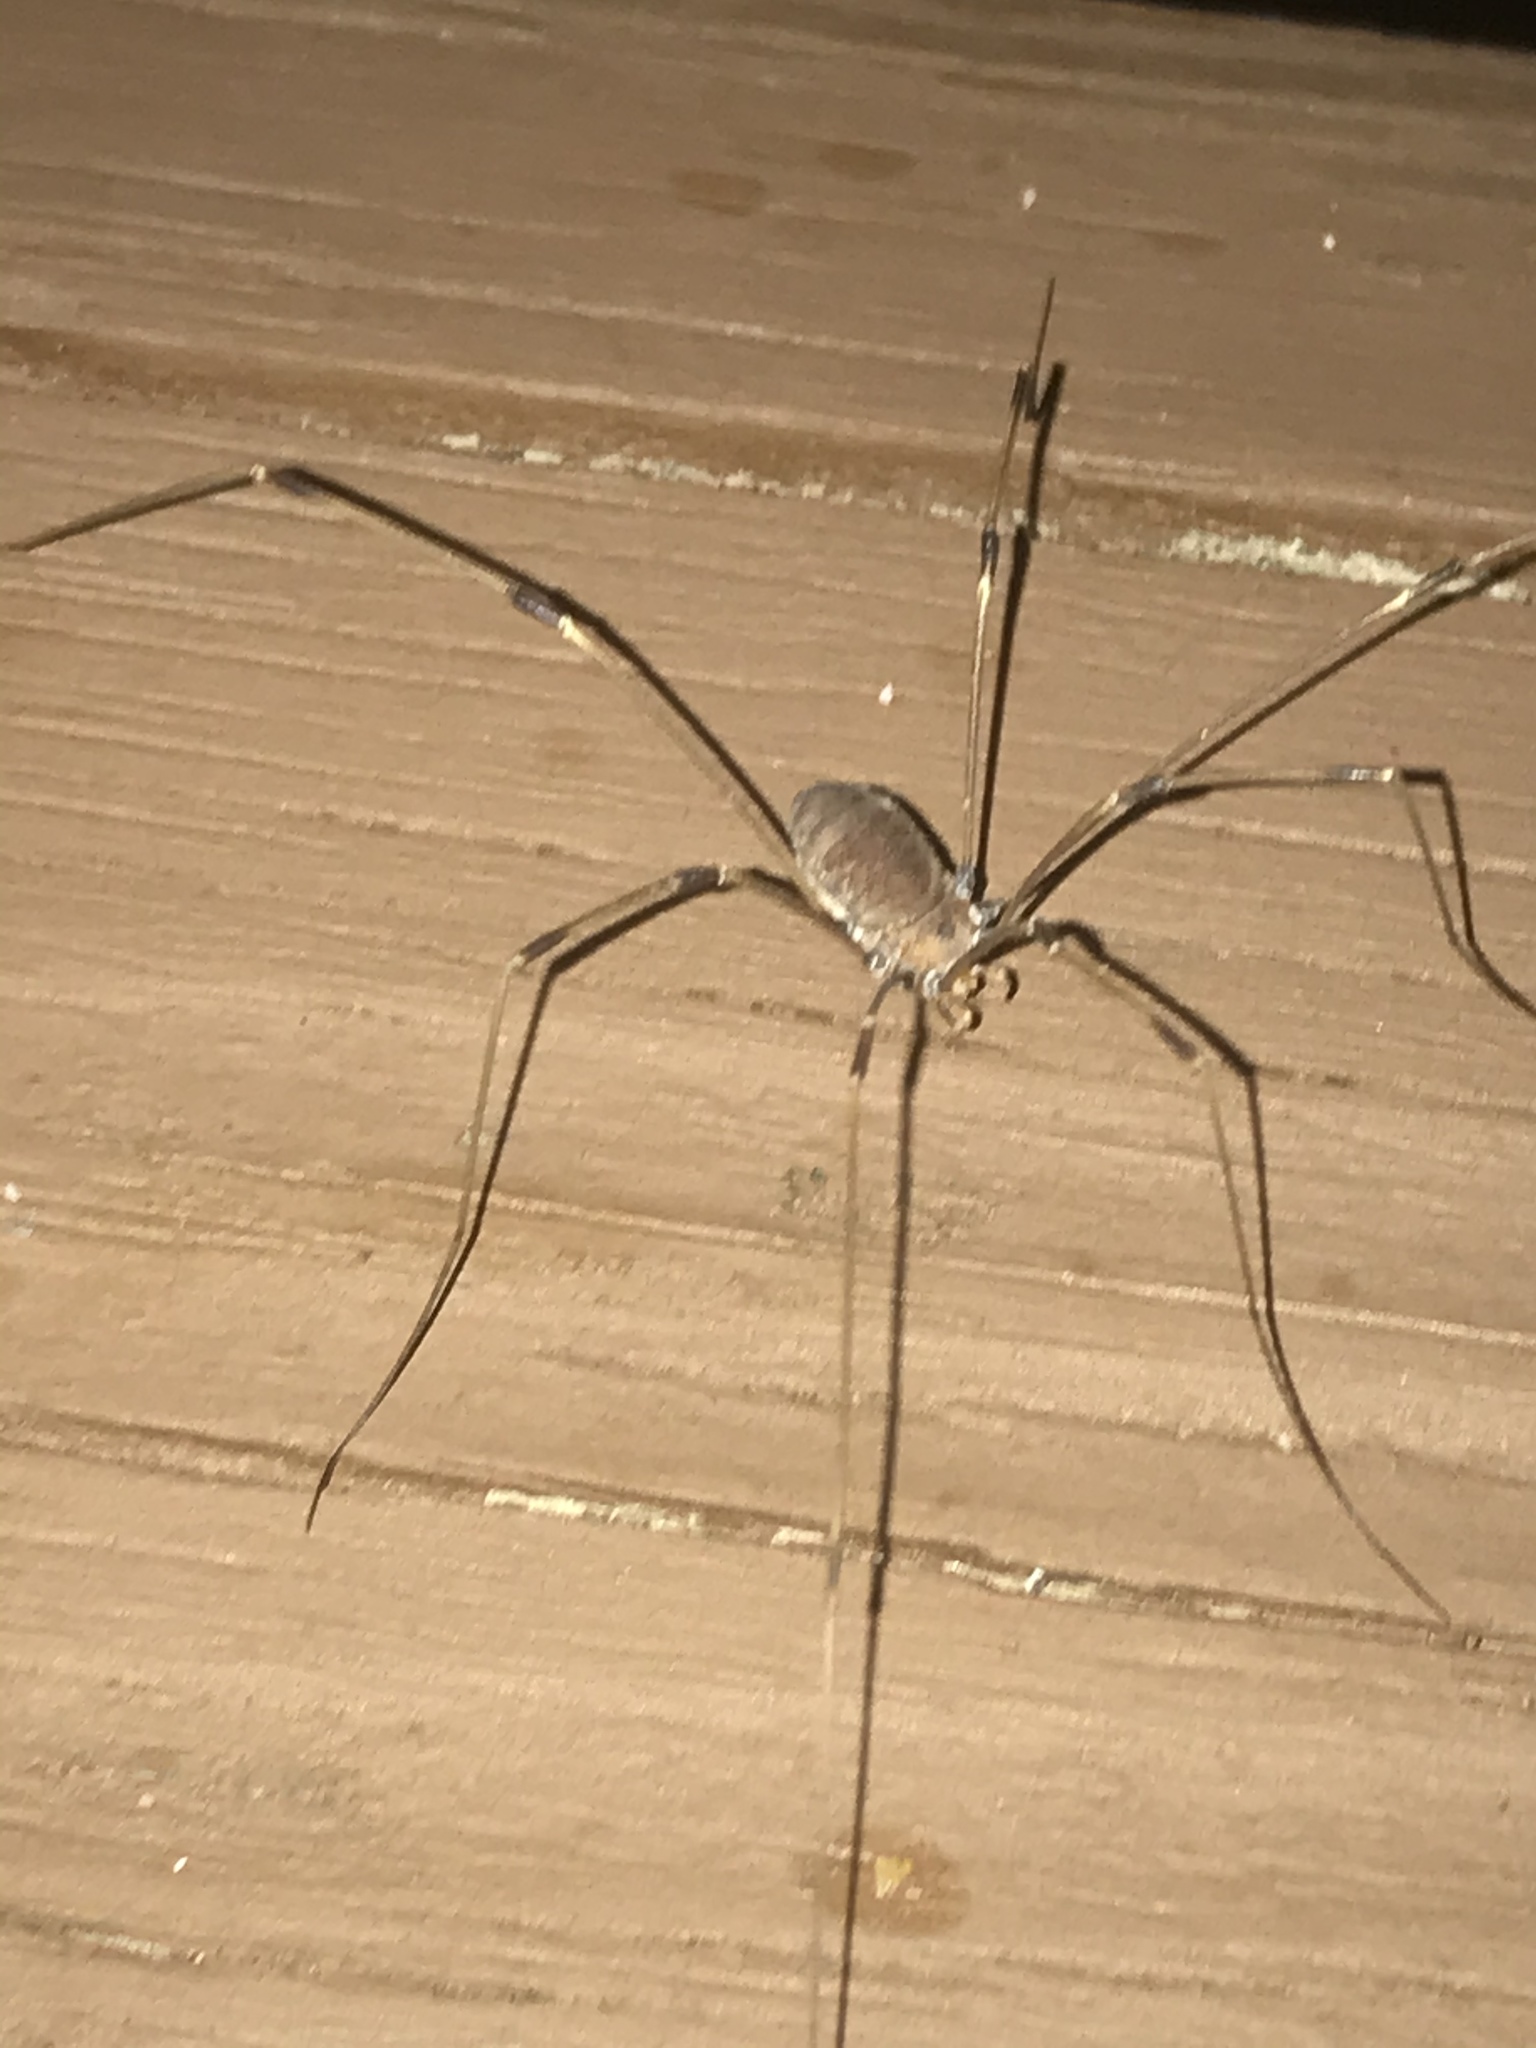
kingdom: Animalia
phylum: Arthropoda
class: Arachnida
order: Opiliones
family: Sclerosomatidae
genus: Leiobunum
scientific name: Leiobunum vittatum
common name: Eastern harvestman
